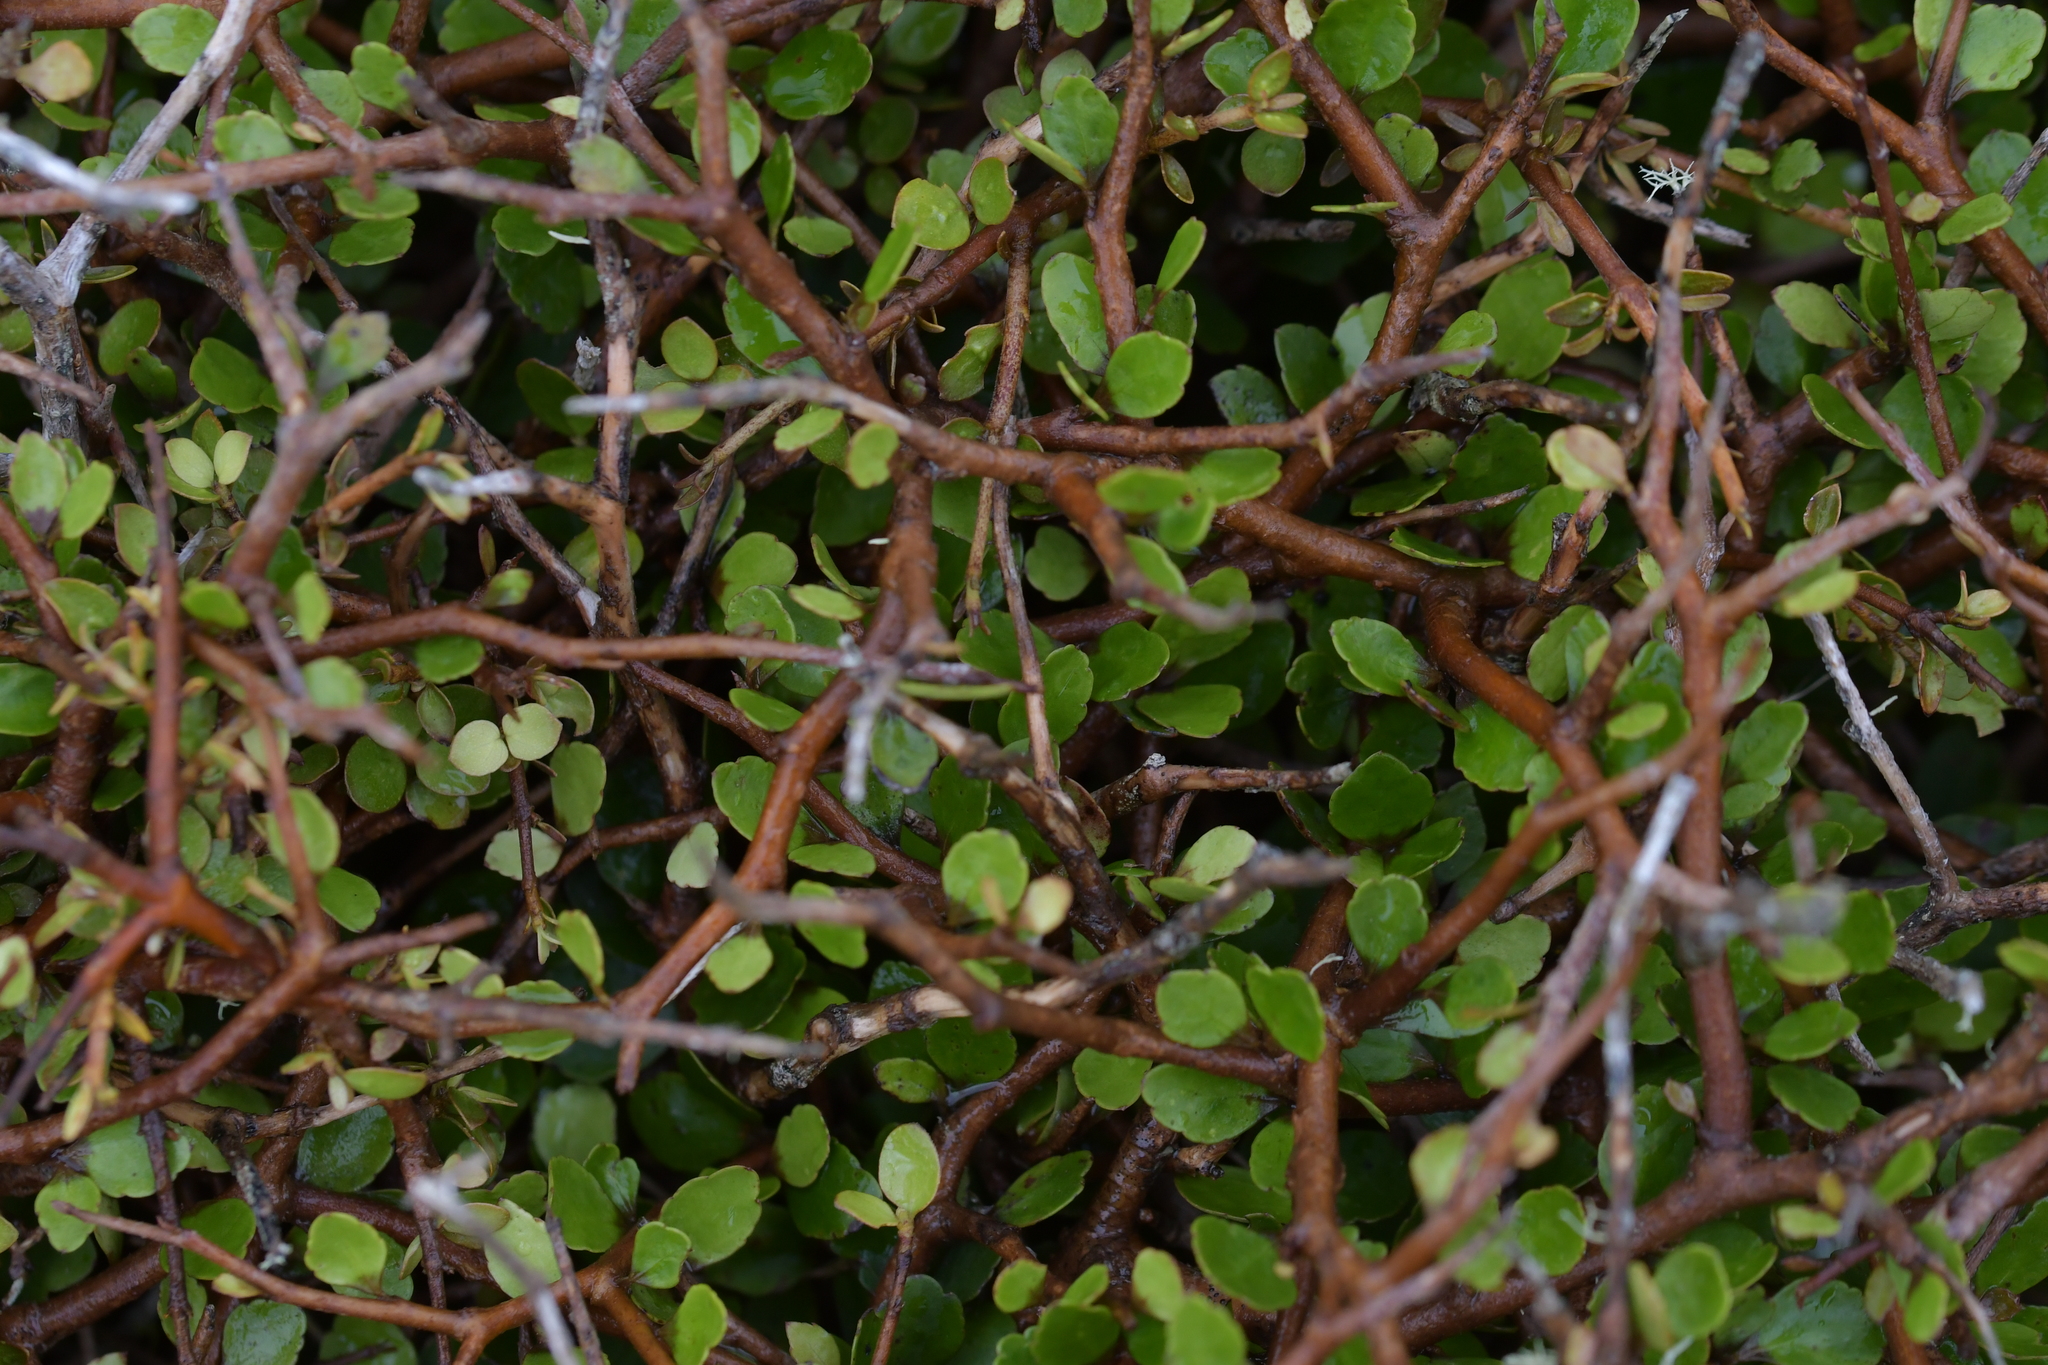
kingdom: Plantae
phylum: Tracheophyta
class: Magnoliopsida
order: Apiales
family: Araliaceae
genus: Raukaua
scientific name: Raukaua anomalus
